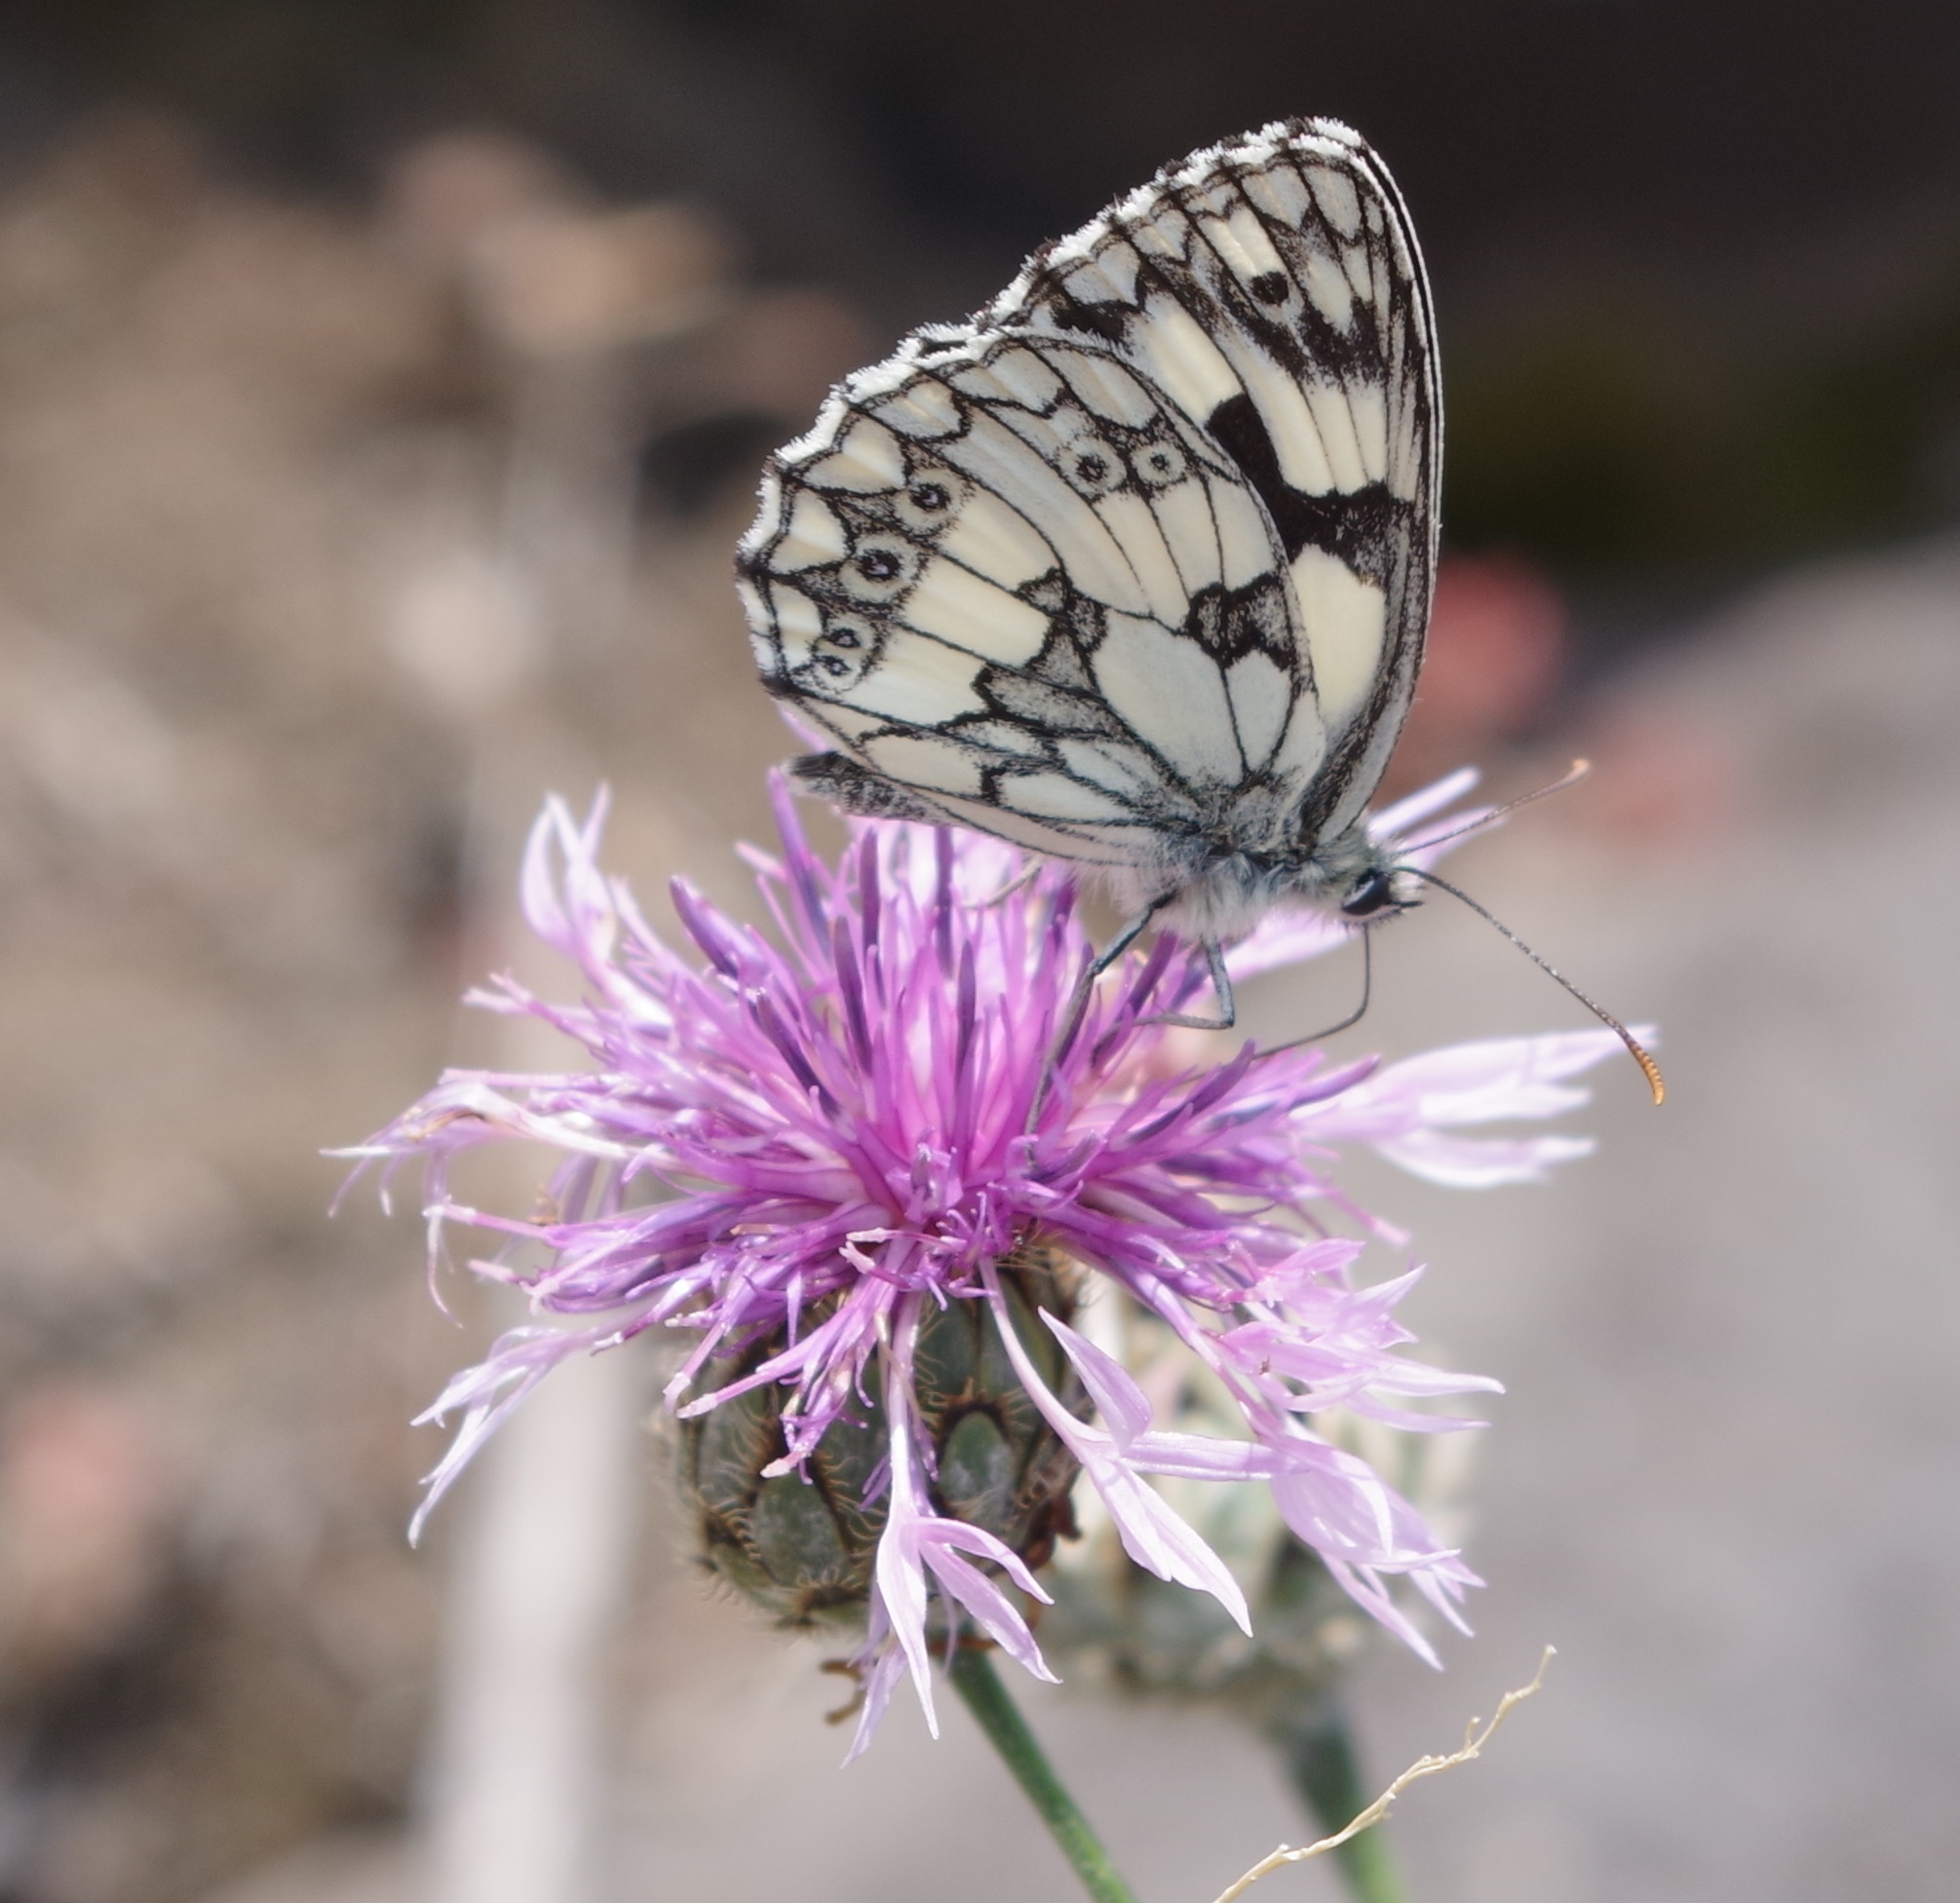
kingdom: Animalia
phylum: Arthropoda
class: Insecta
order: Lepidoptera
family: Nymphalidae
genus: Melanargia
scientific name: Melanargia galathea
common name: Marbled white
